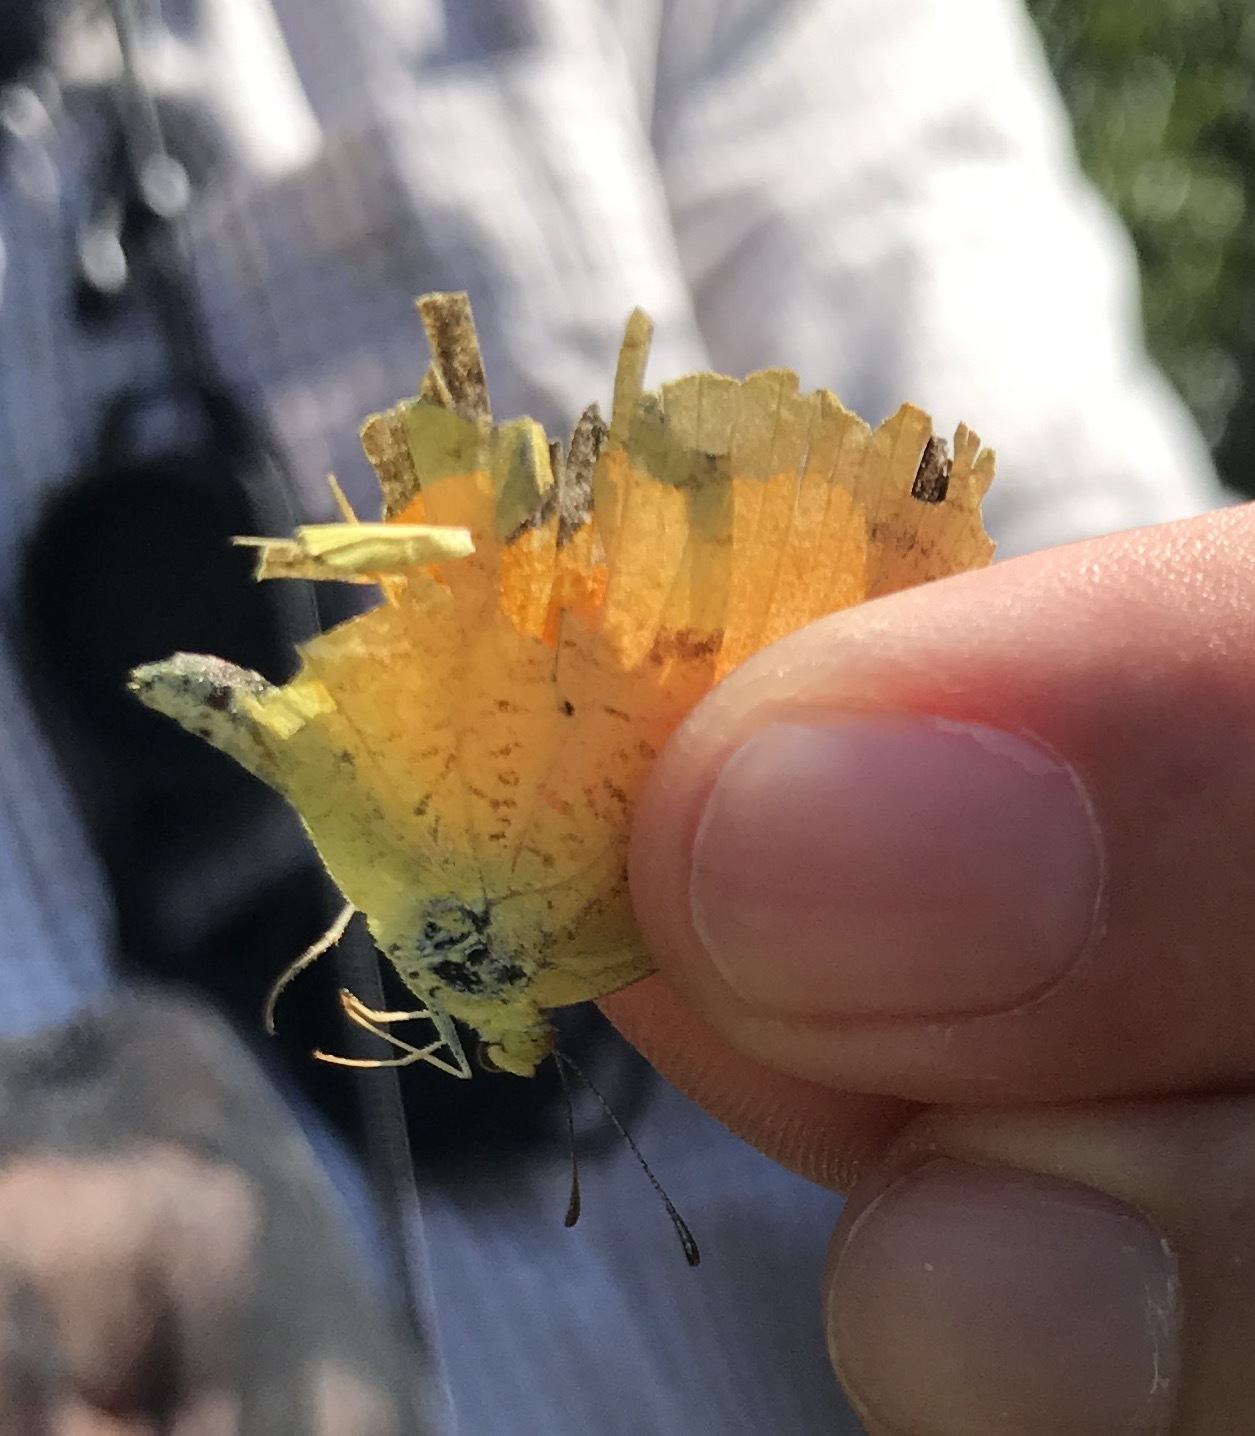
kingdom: Animalia
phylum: Arthropoda
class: Insecta
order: Lepidoptera
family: Pieridae
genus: Abaeis
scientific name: Abaeis nicippe
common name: Sleepy orange
